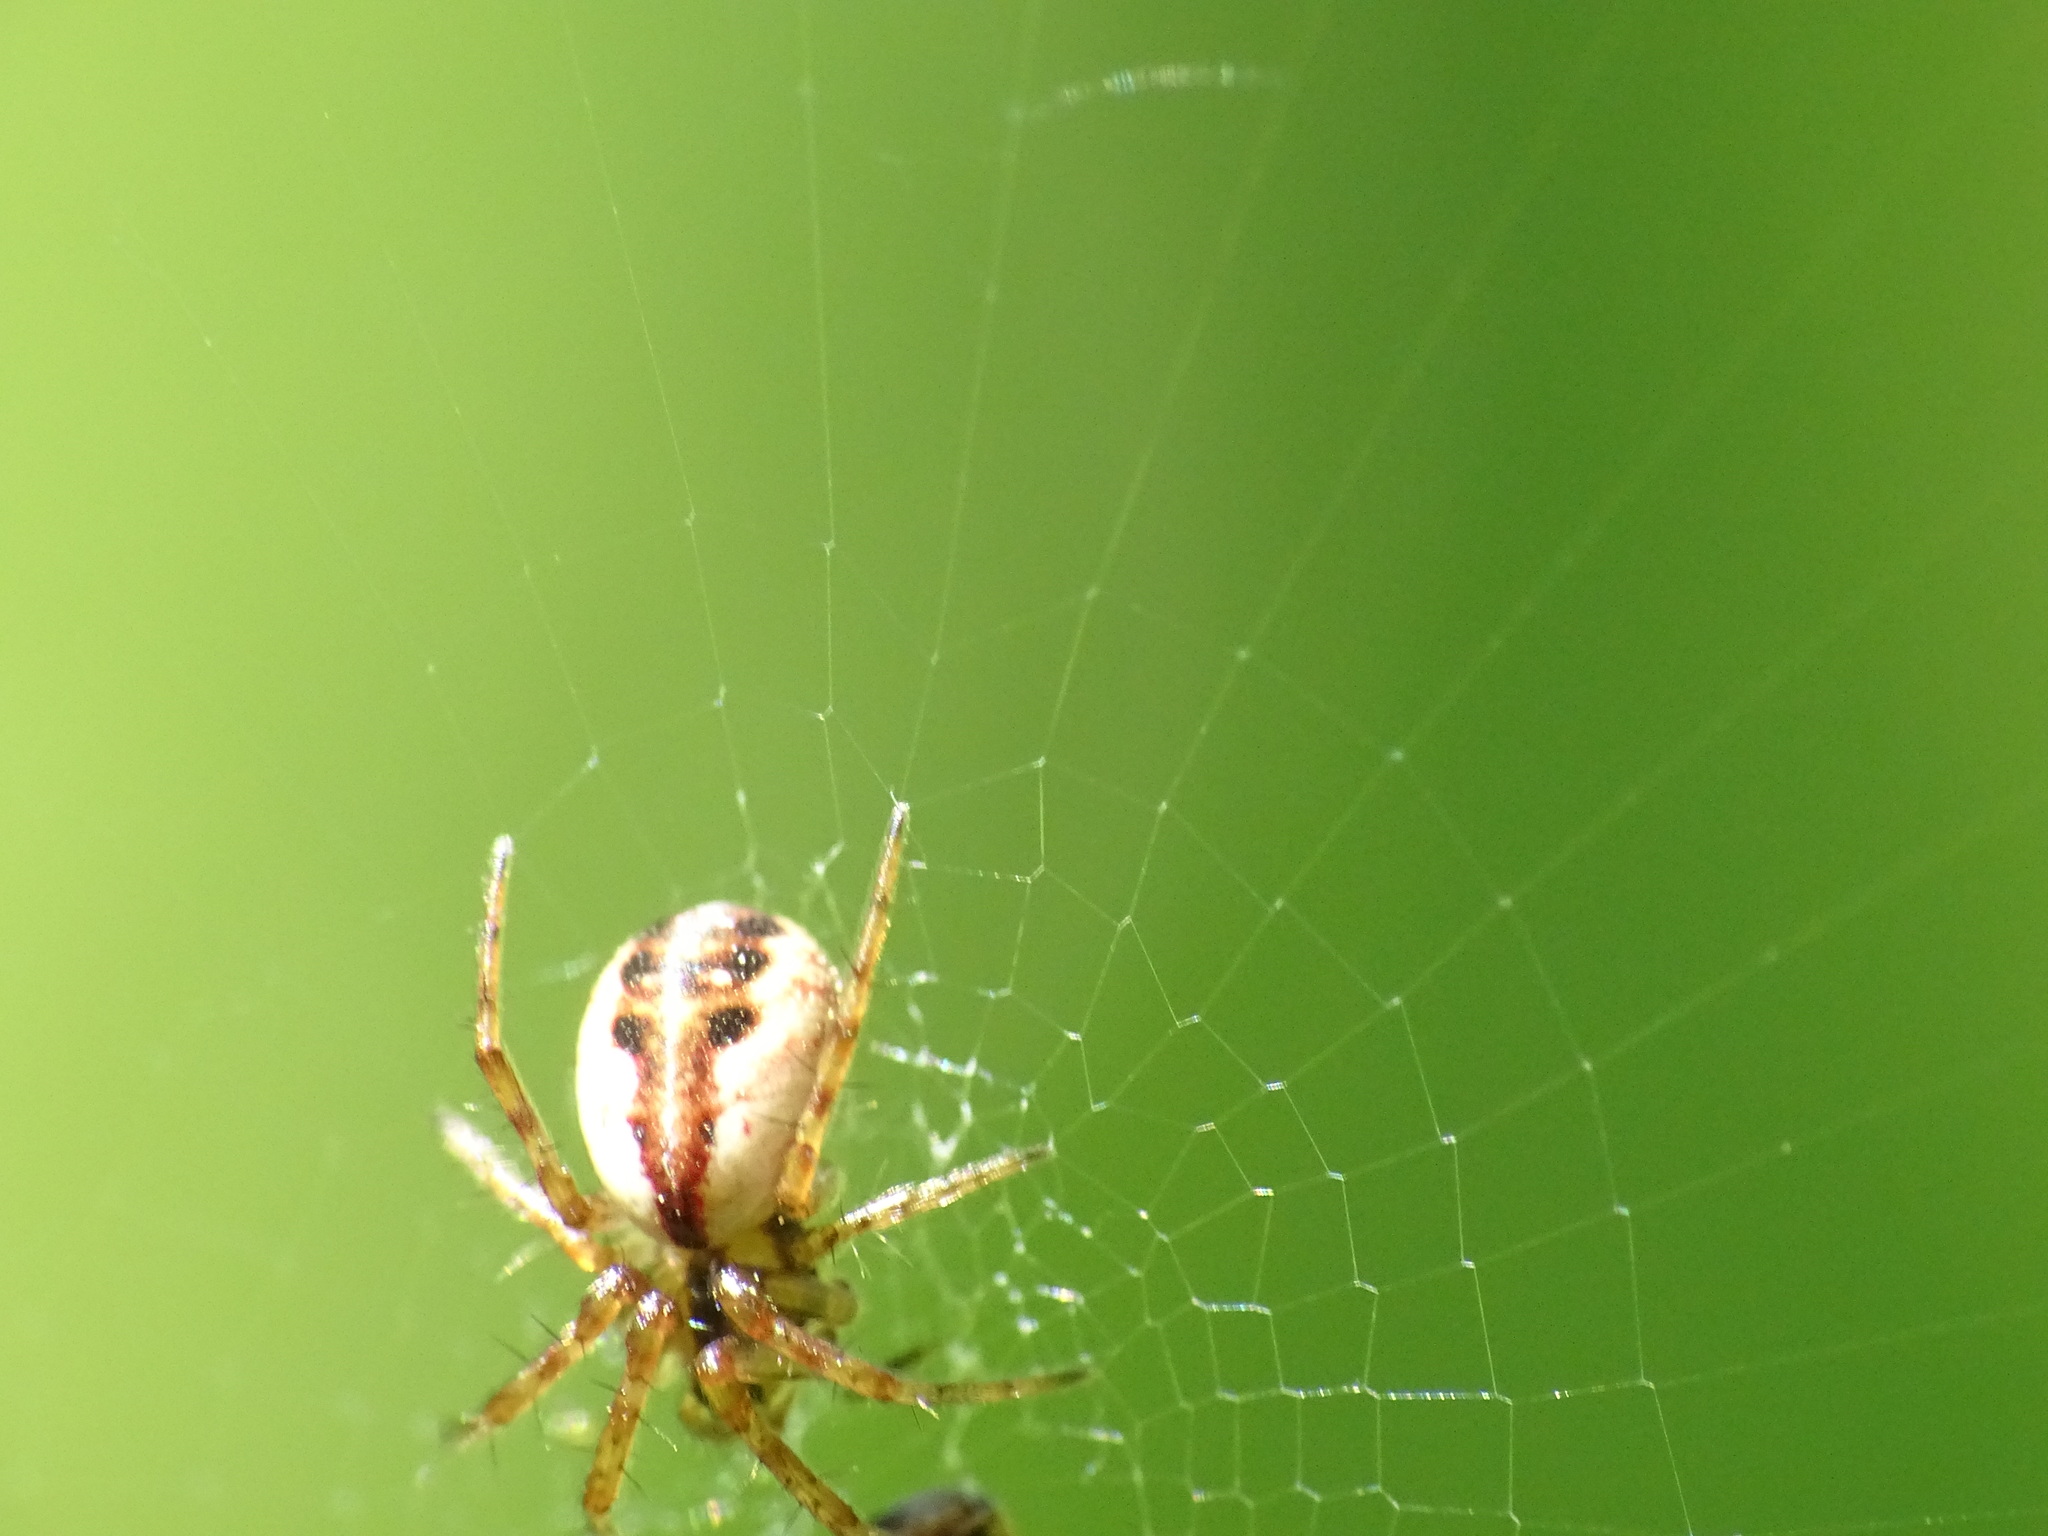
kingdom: Animalia
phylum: Arthropoda
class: Arachnida
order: Araneae
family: Araneidae
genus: Mangora
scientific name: Mangora placida
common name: Tuft-legged orbweaver
